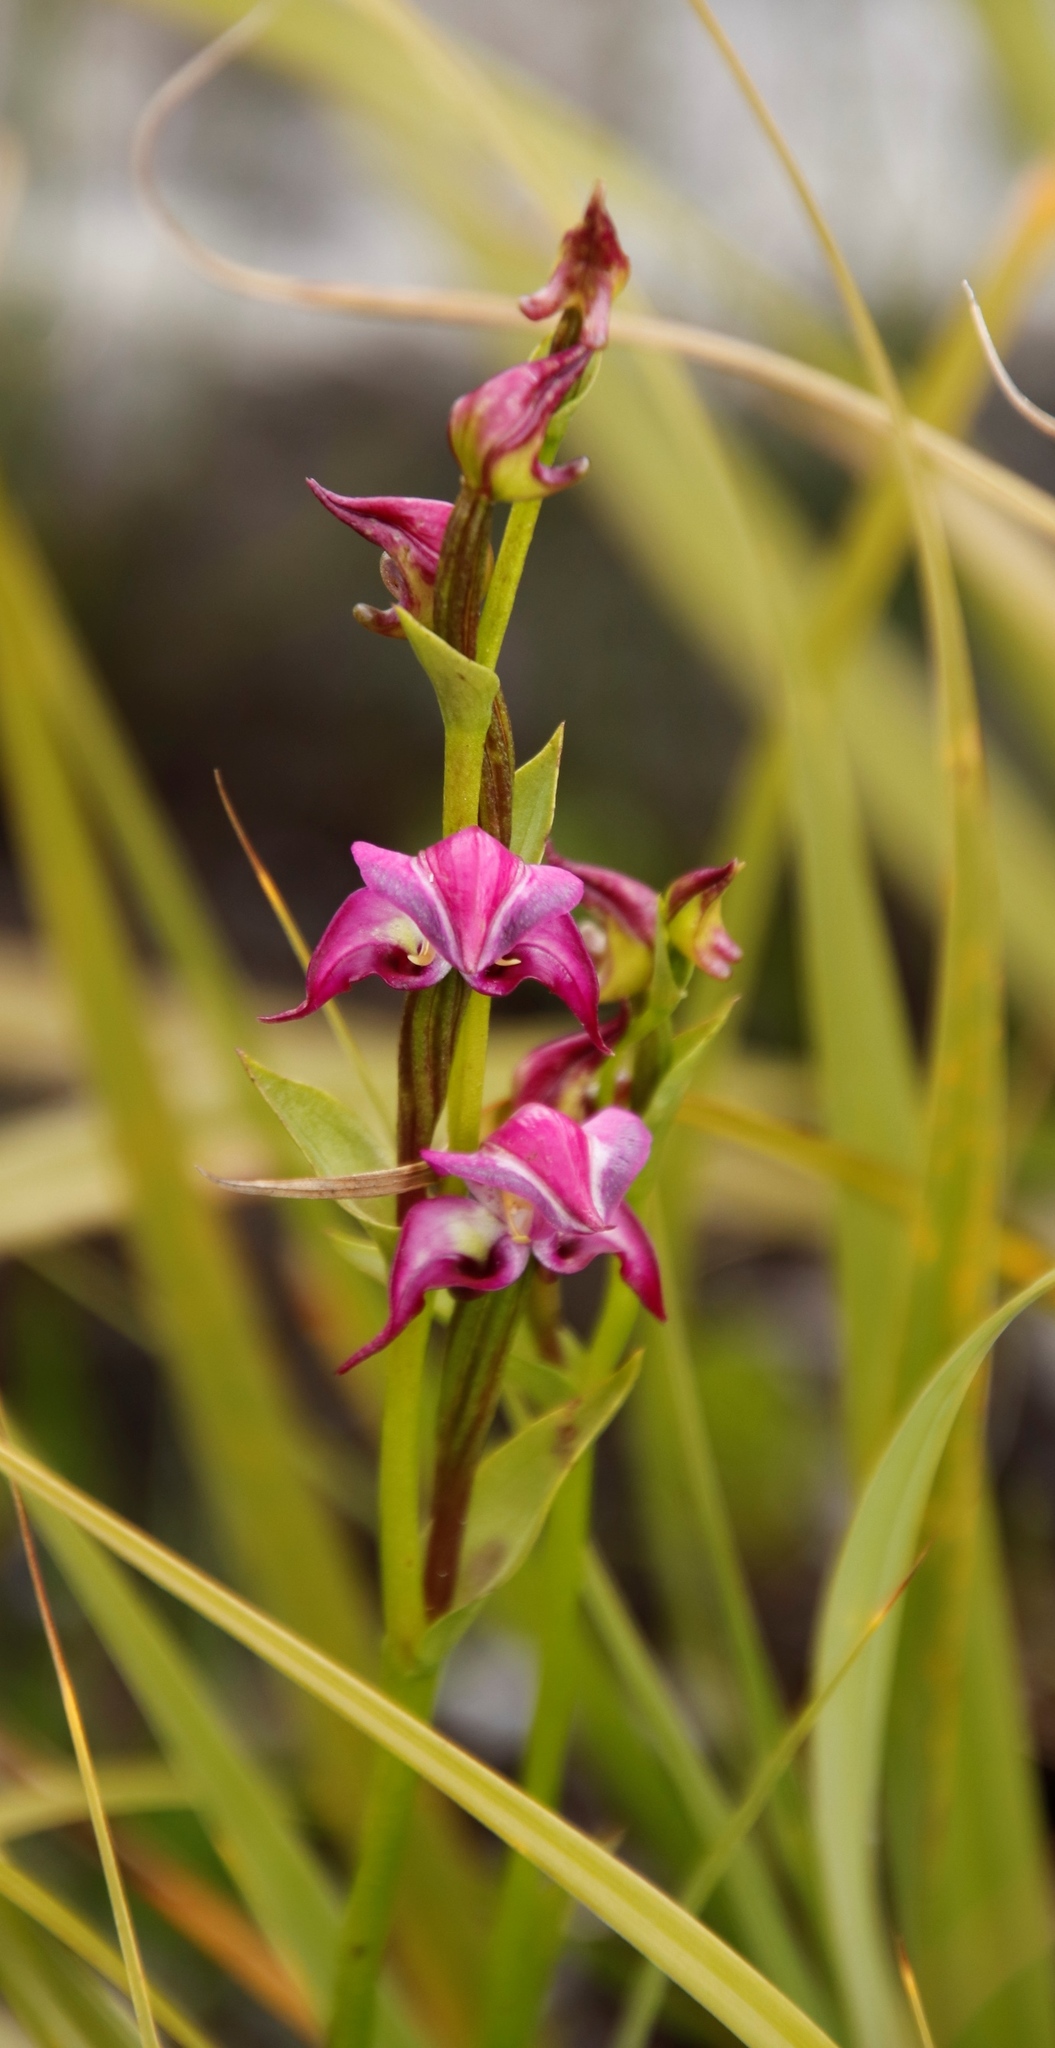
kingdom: Plantae
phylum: Tracheophyta
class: Liliopsida
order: Asparagales
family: Orchidaceae
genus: Disperis
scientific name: Disperis paludosa
